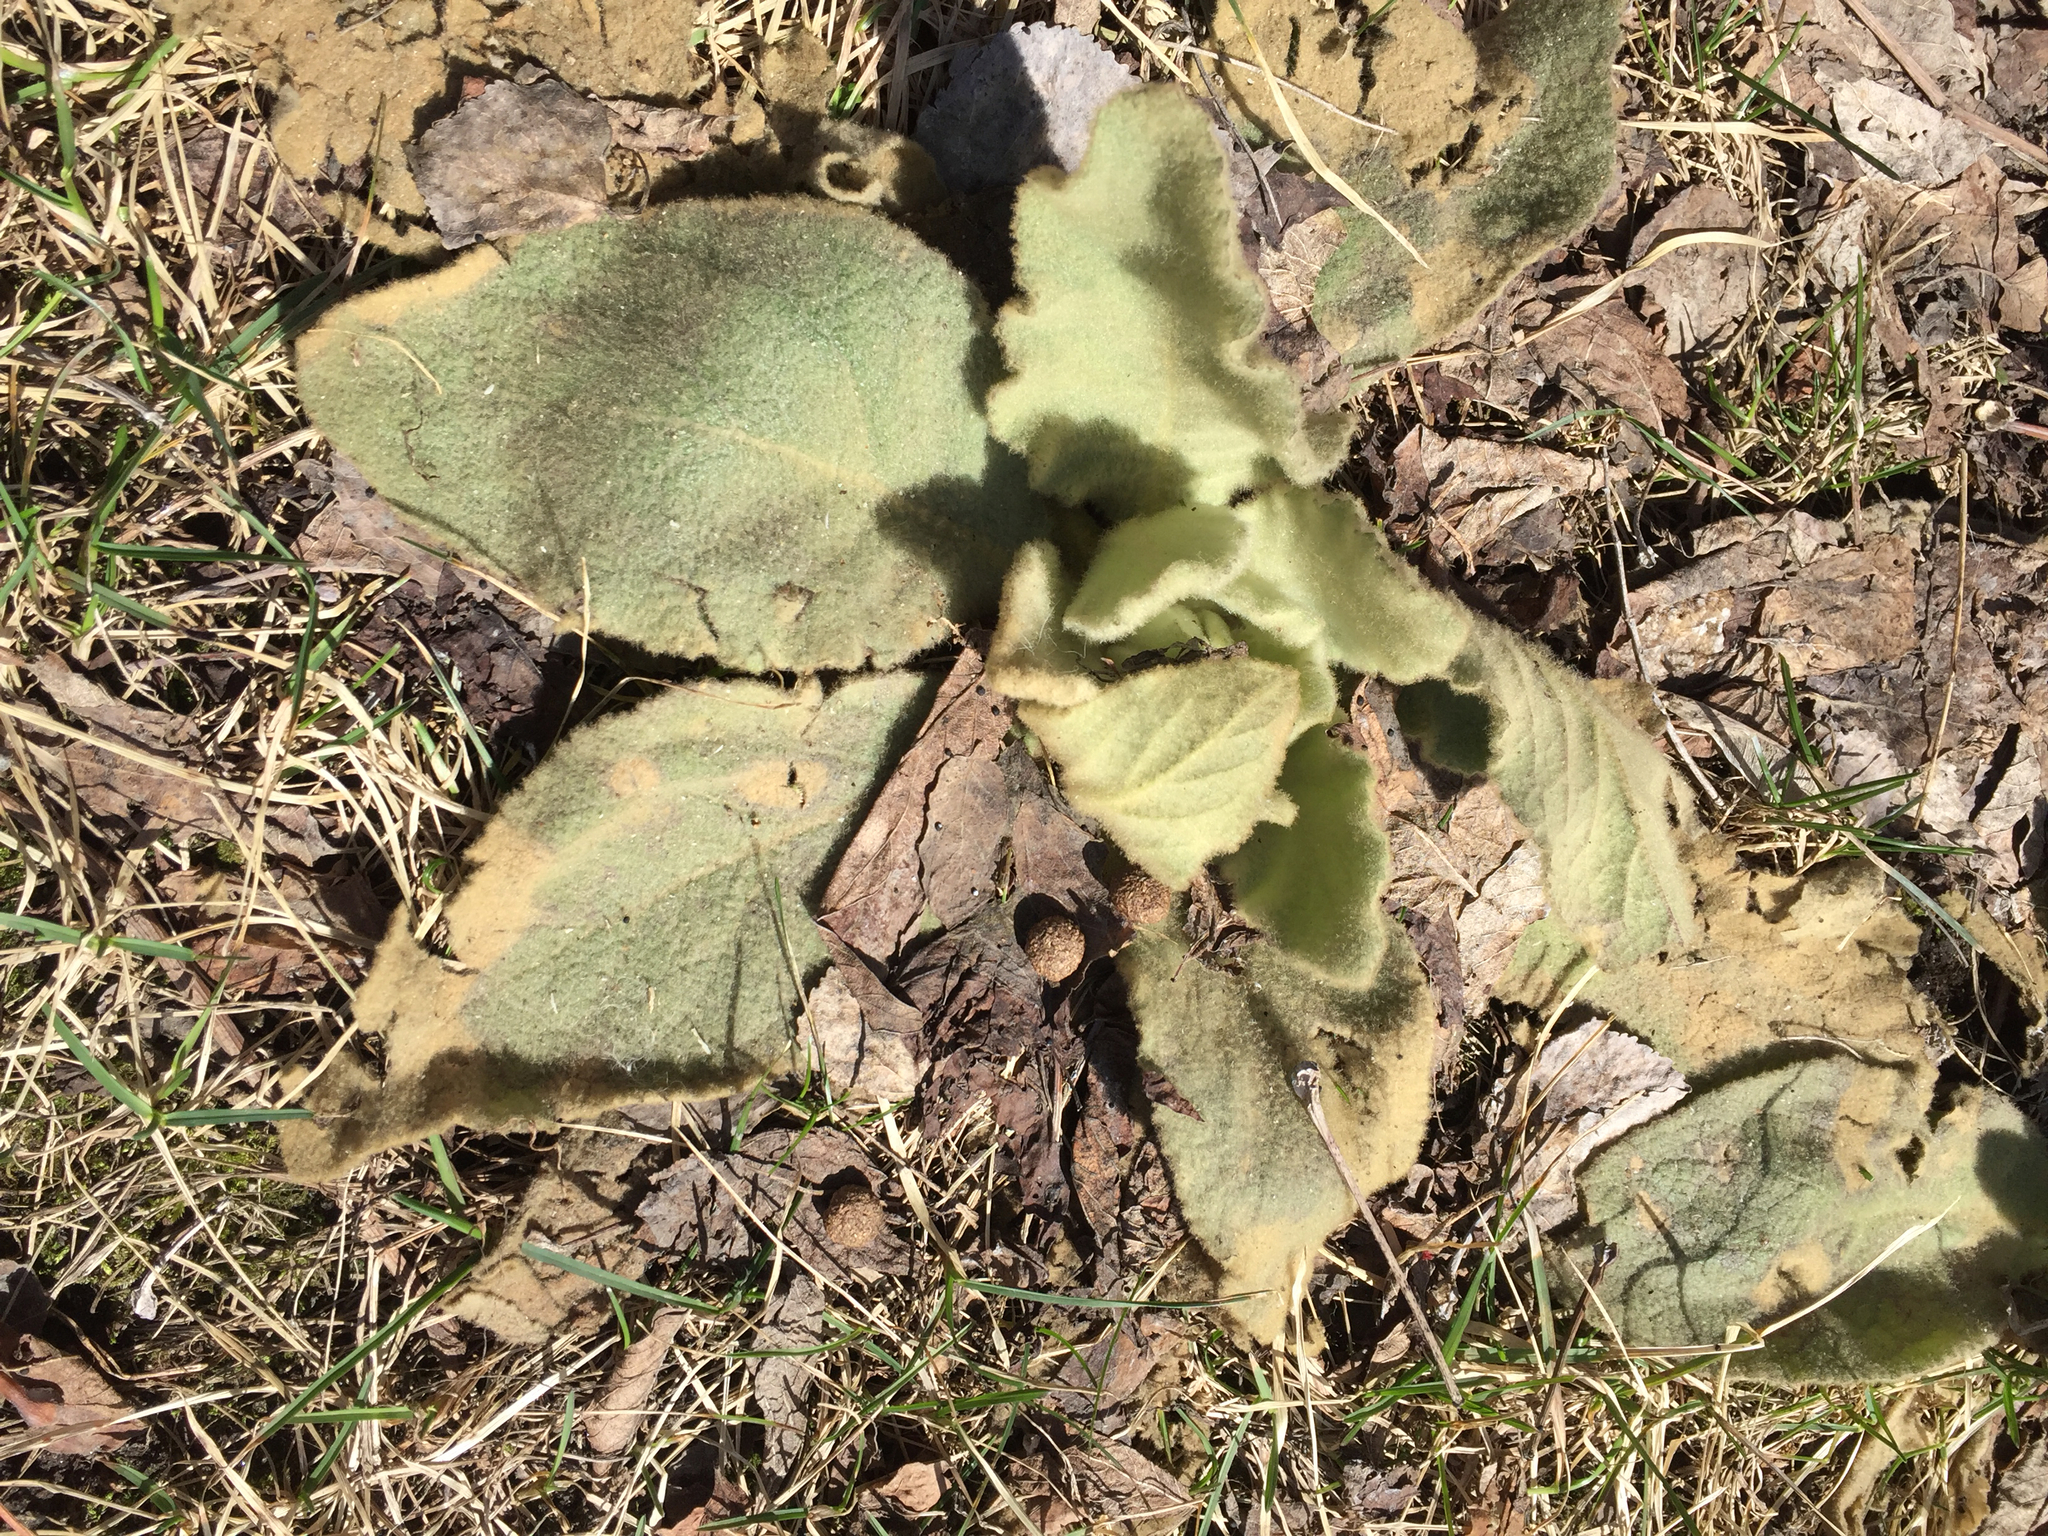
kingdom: Plantae
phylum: Tracheophyta
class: Magnoliopsida
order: Lamiales
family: Scrophulariaceae
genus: Verbascum
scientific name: Verbascum thapsus
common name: Common mullein
